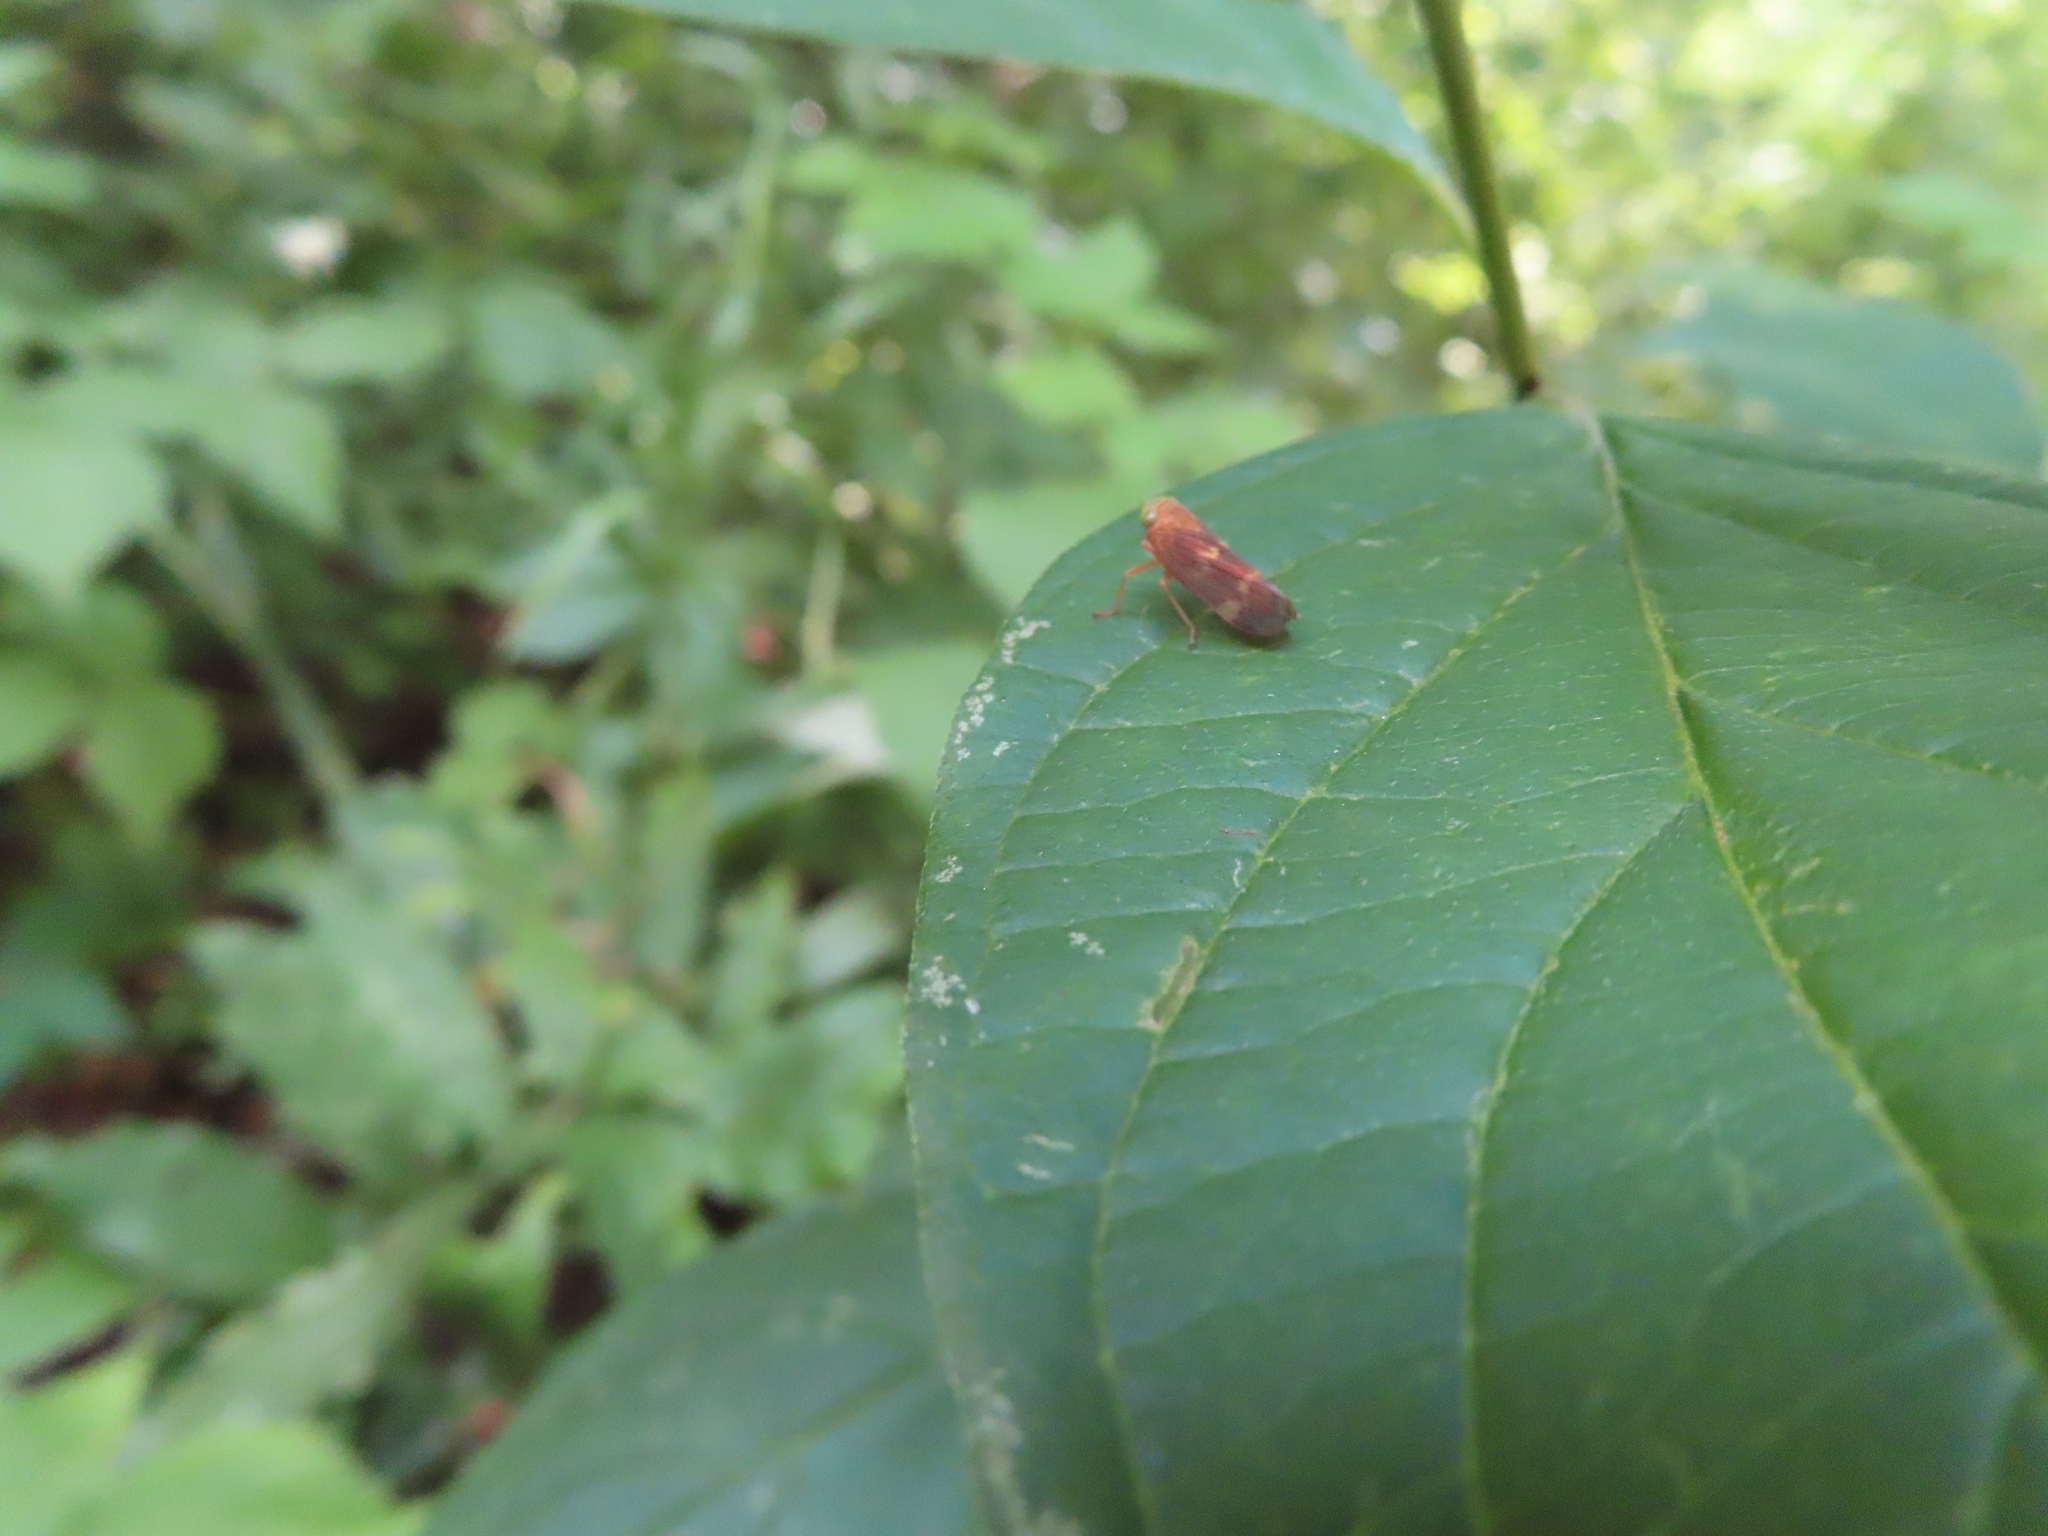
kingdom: Animalia
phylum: Arthropoda
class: Insecta
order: Hemiptera
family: Cicadellidae
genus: Jikradia
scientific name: Jikradia olitoria
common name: Coppery leafhopper
